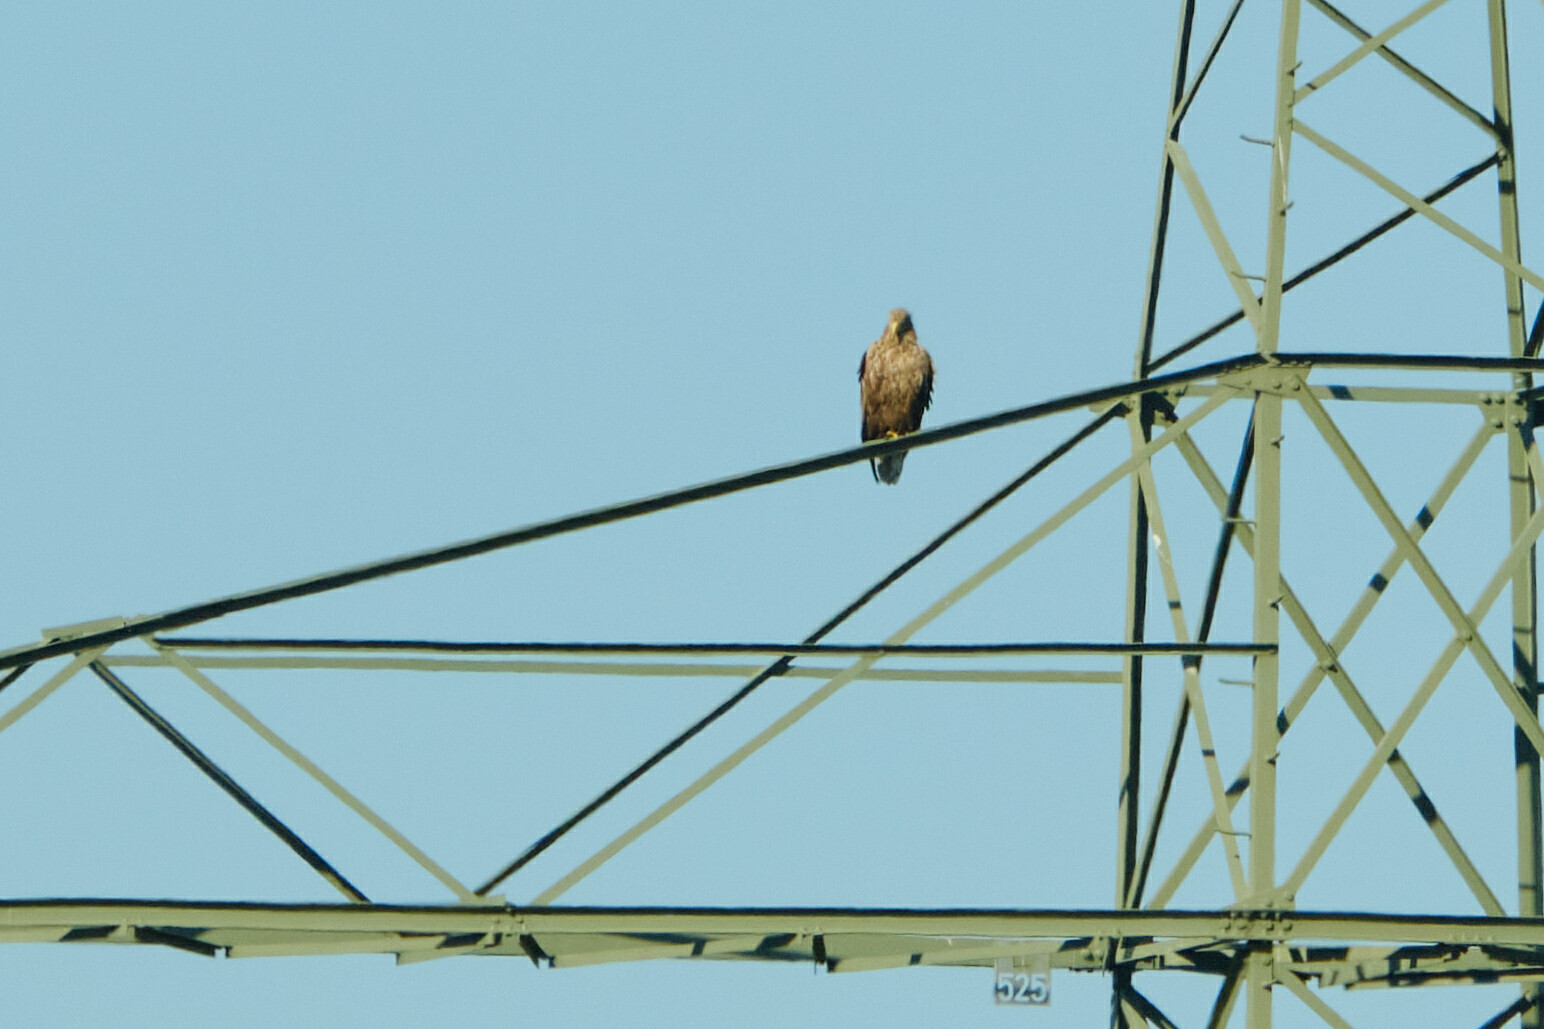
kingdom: Animalia
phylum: Chordata
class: Aves
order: Accipitriformes
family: Accipitridae
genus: Haliaeetus
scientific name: Haliaeetus albicilla
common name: White-tailed eagle
